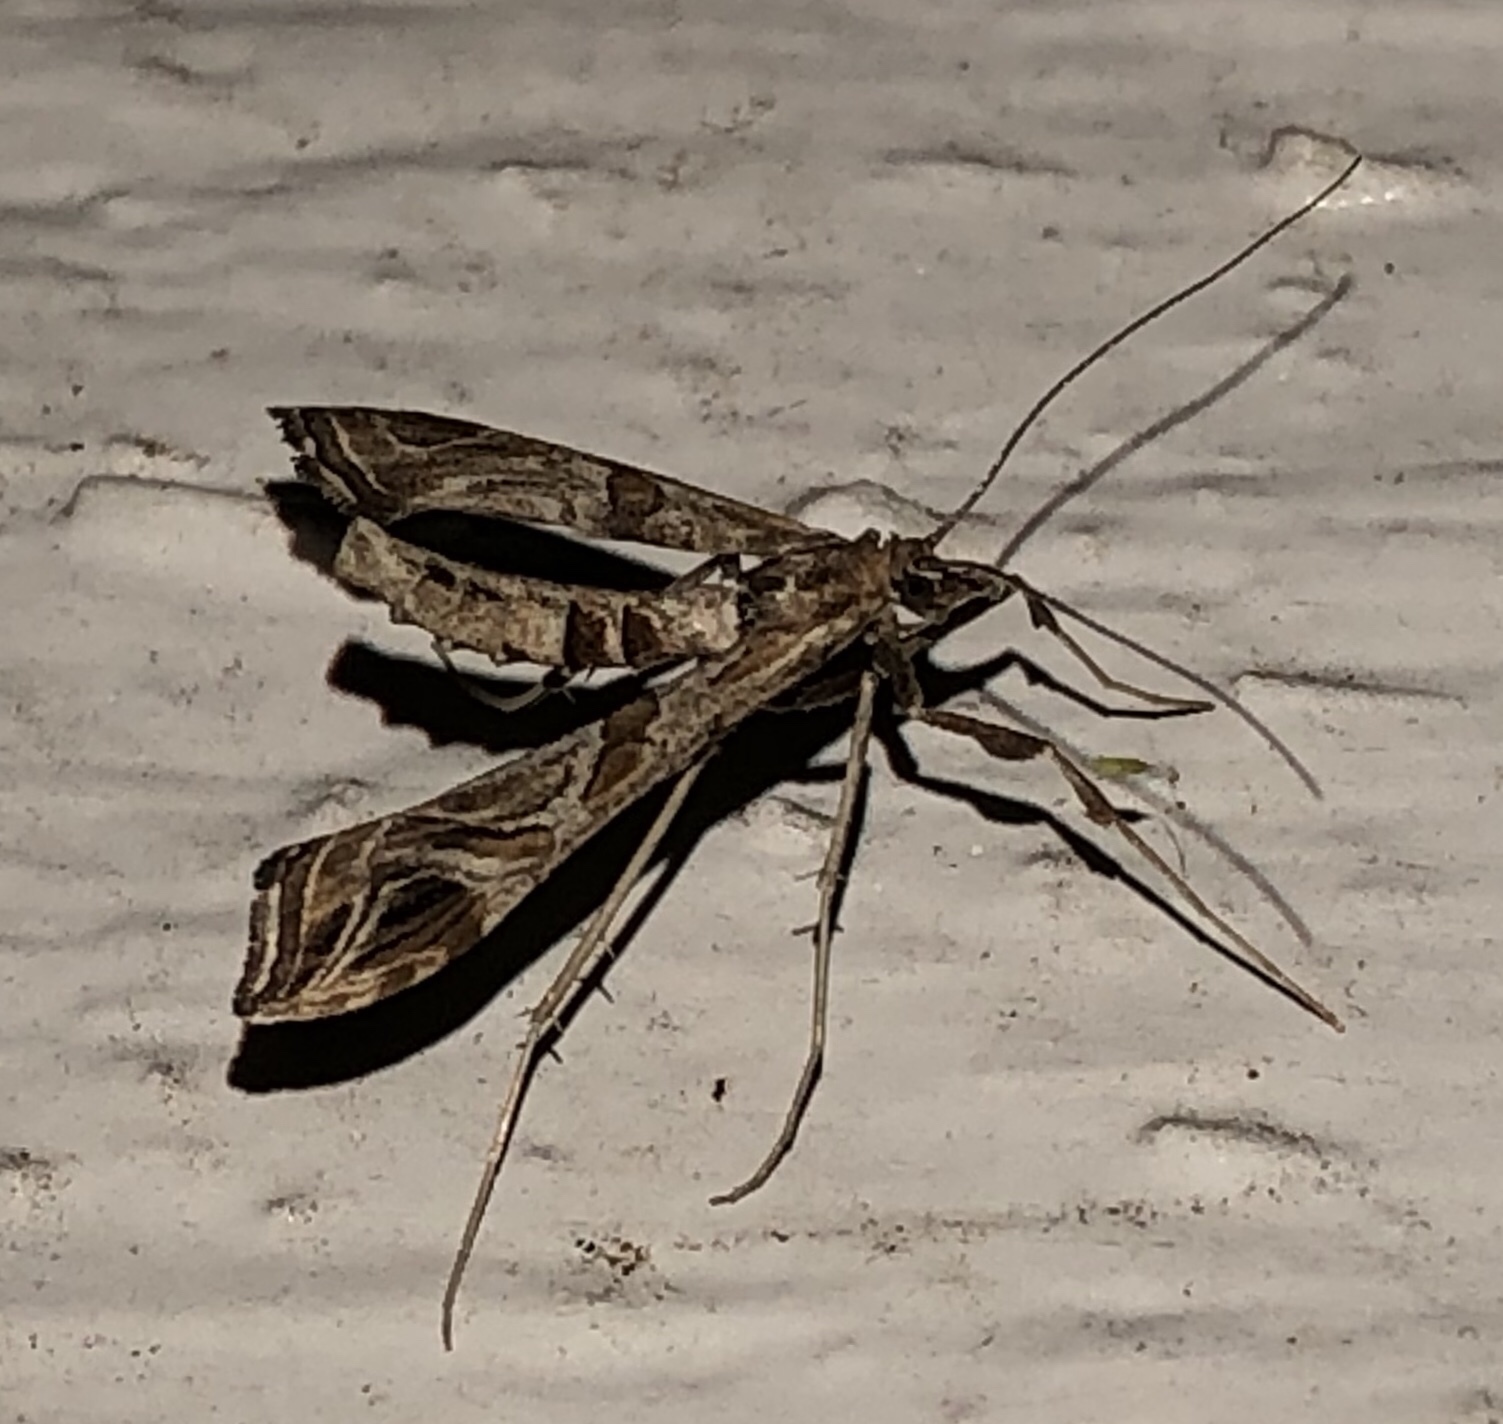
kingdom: Animalia
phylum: Arthropoda
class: Insecta
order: Lepidoptera
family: Crambidae
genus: Lineodes
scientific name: Lineodes interrupta
